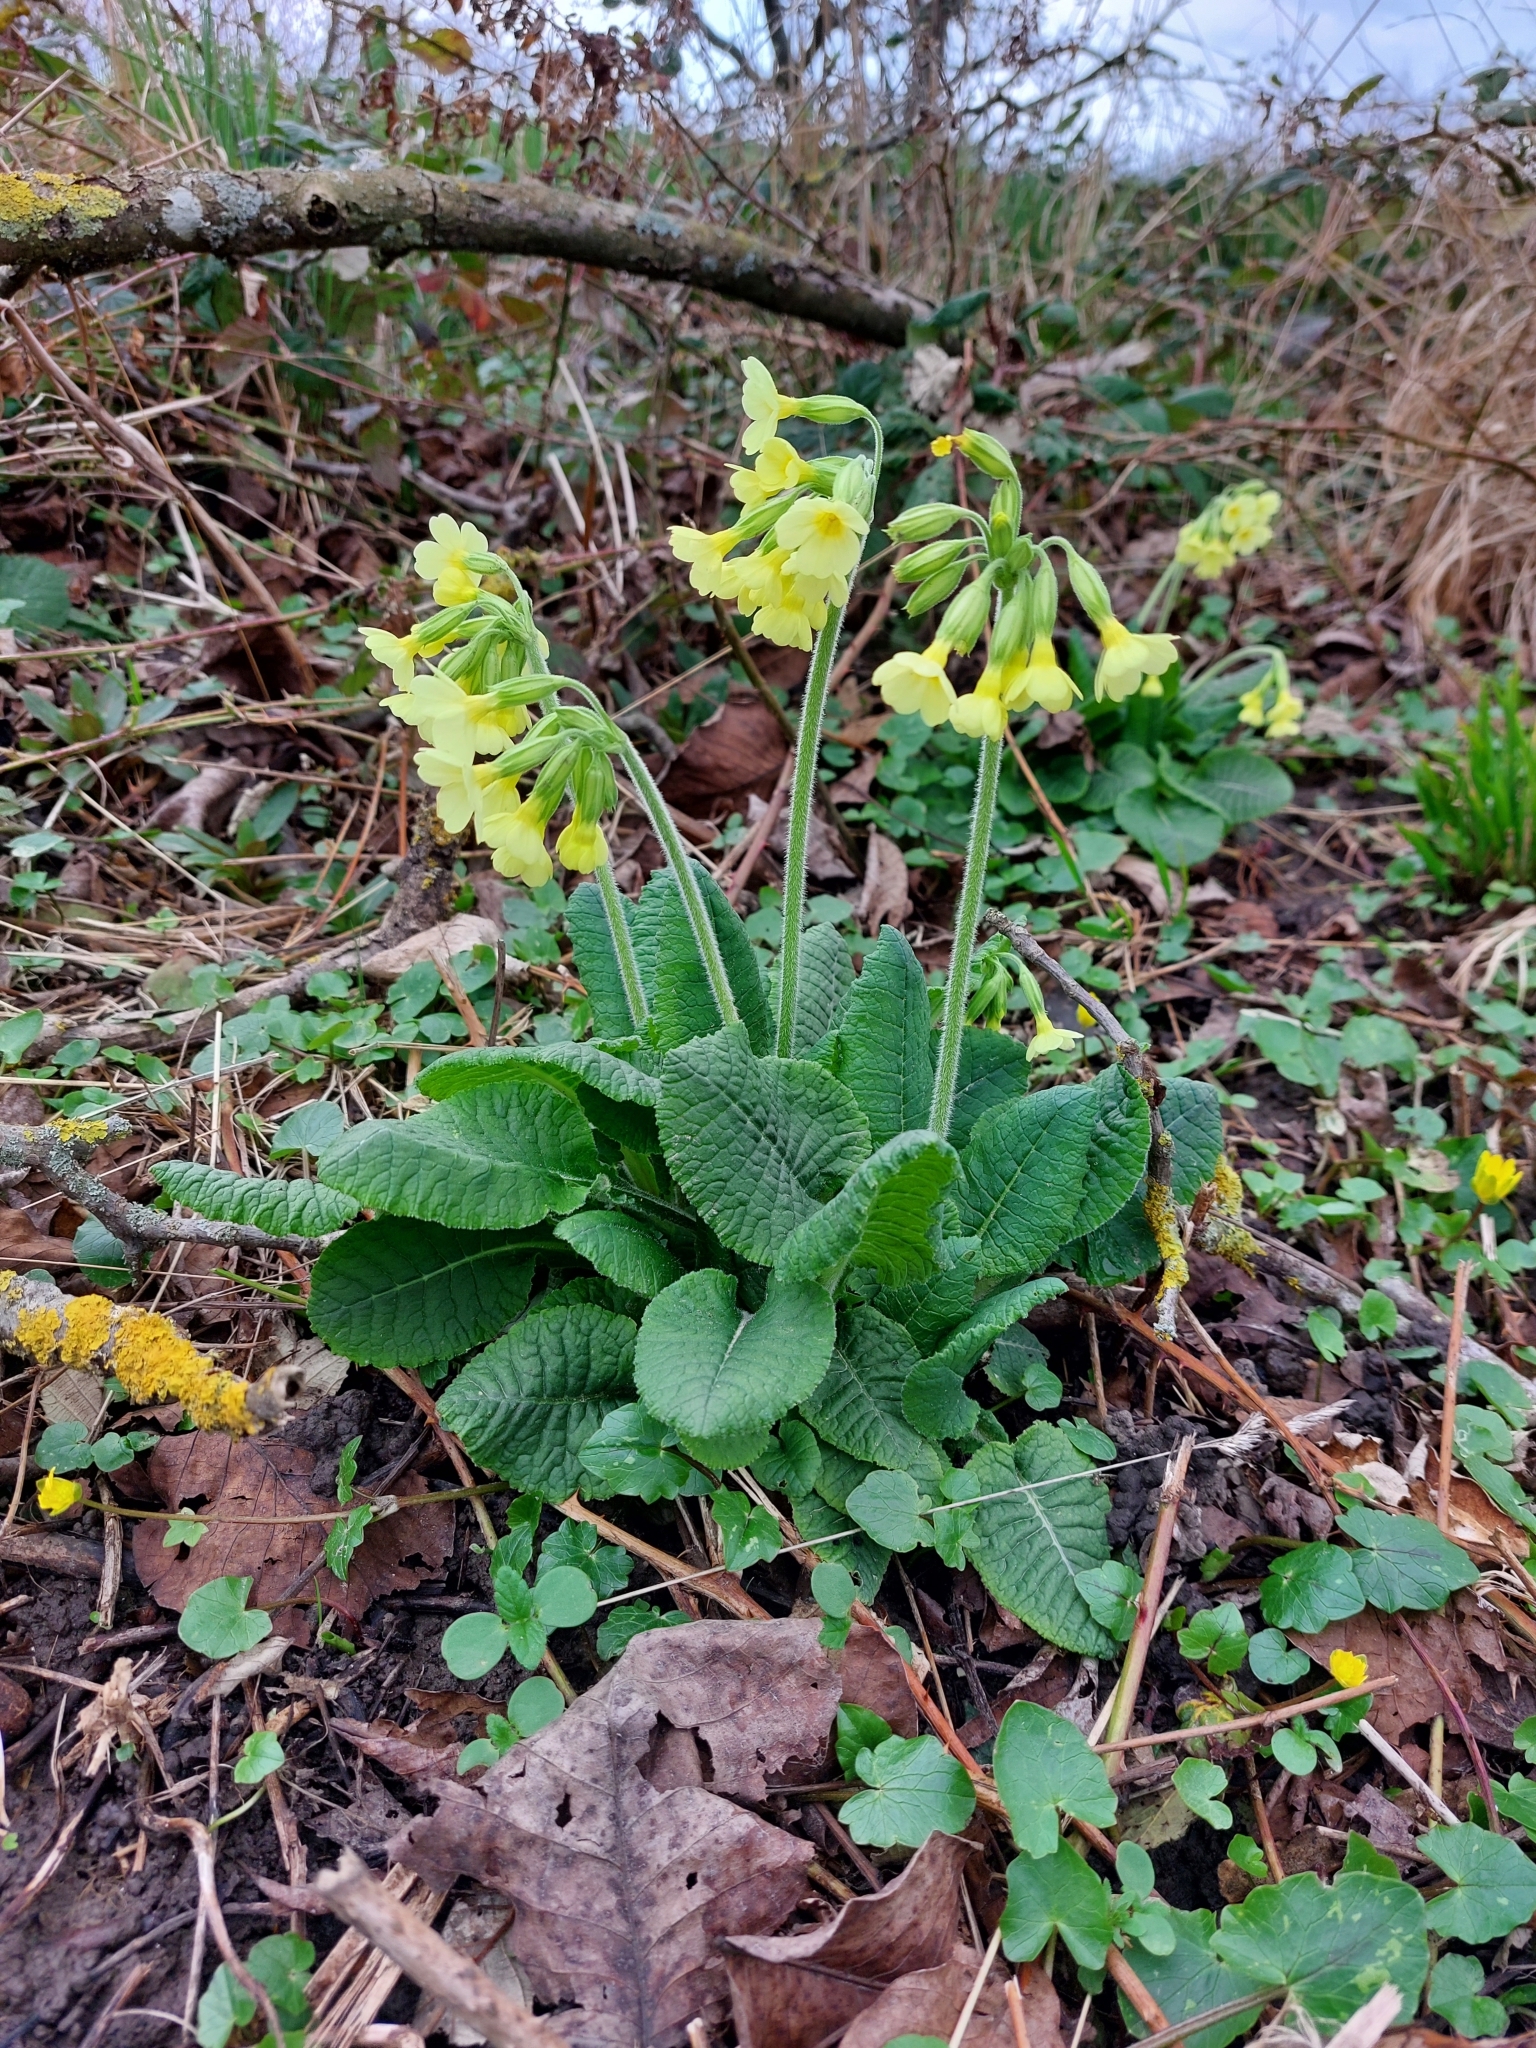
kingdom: Plantae
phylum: Tracheophyta
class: Magnoliopsida
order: Ericales
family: Primulaceae
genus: Primula
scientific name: Primula elatior
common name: Oxlip
